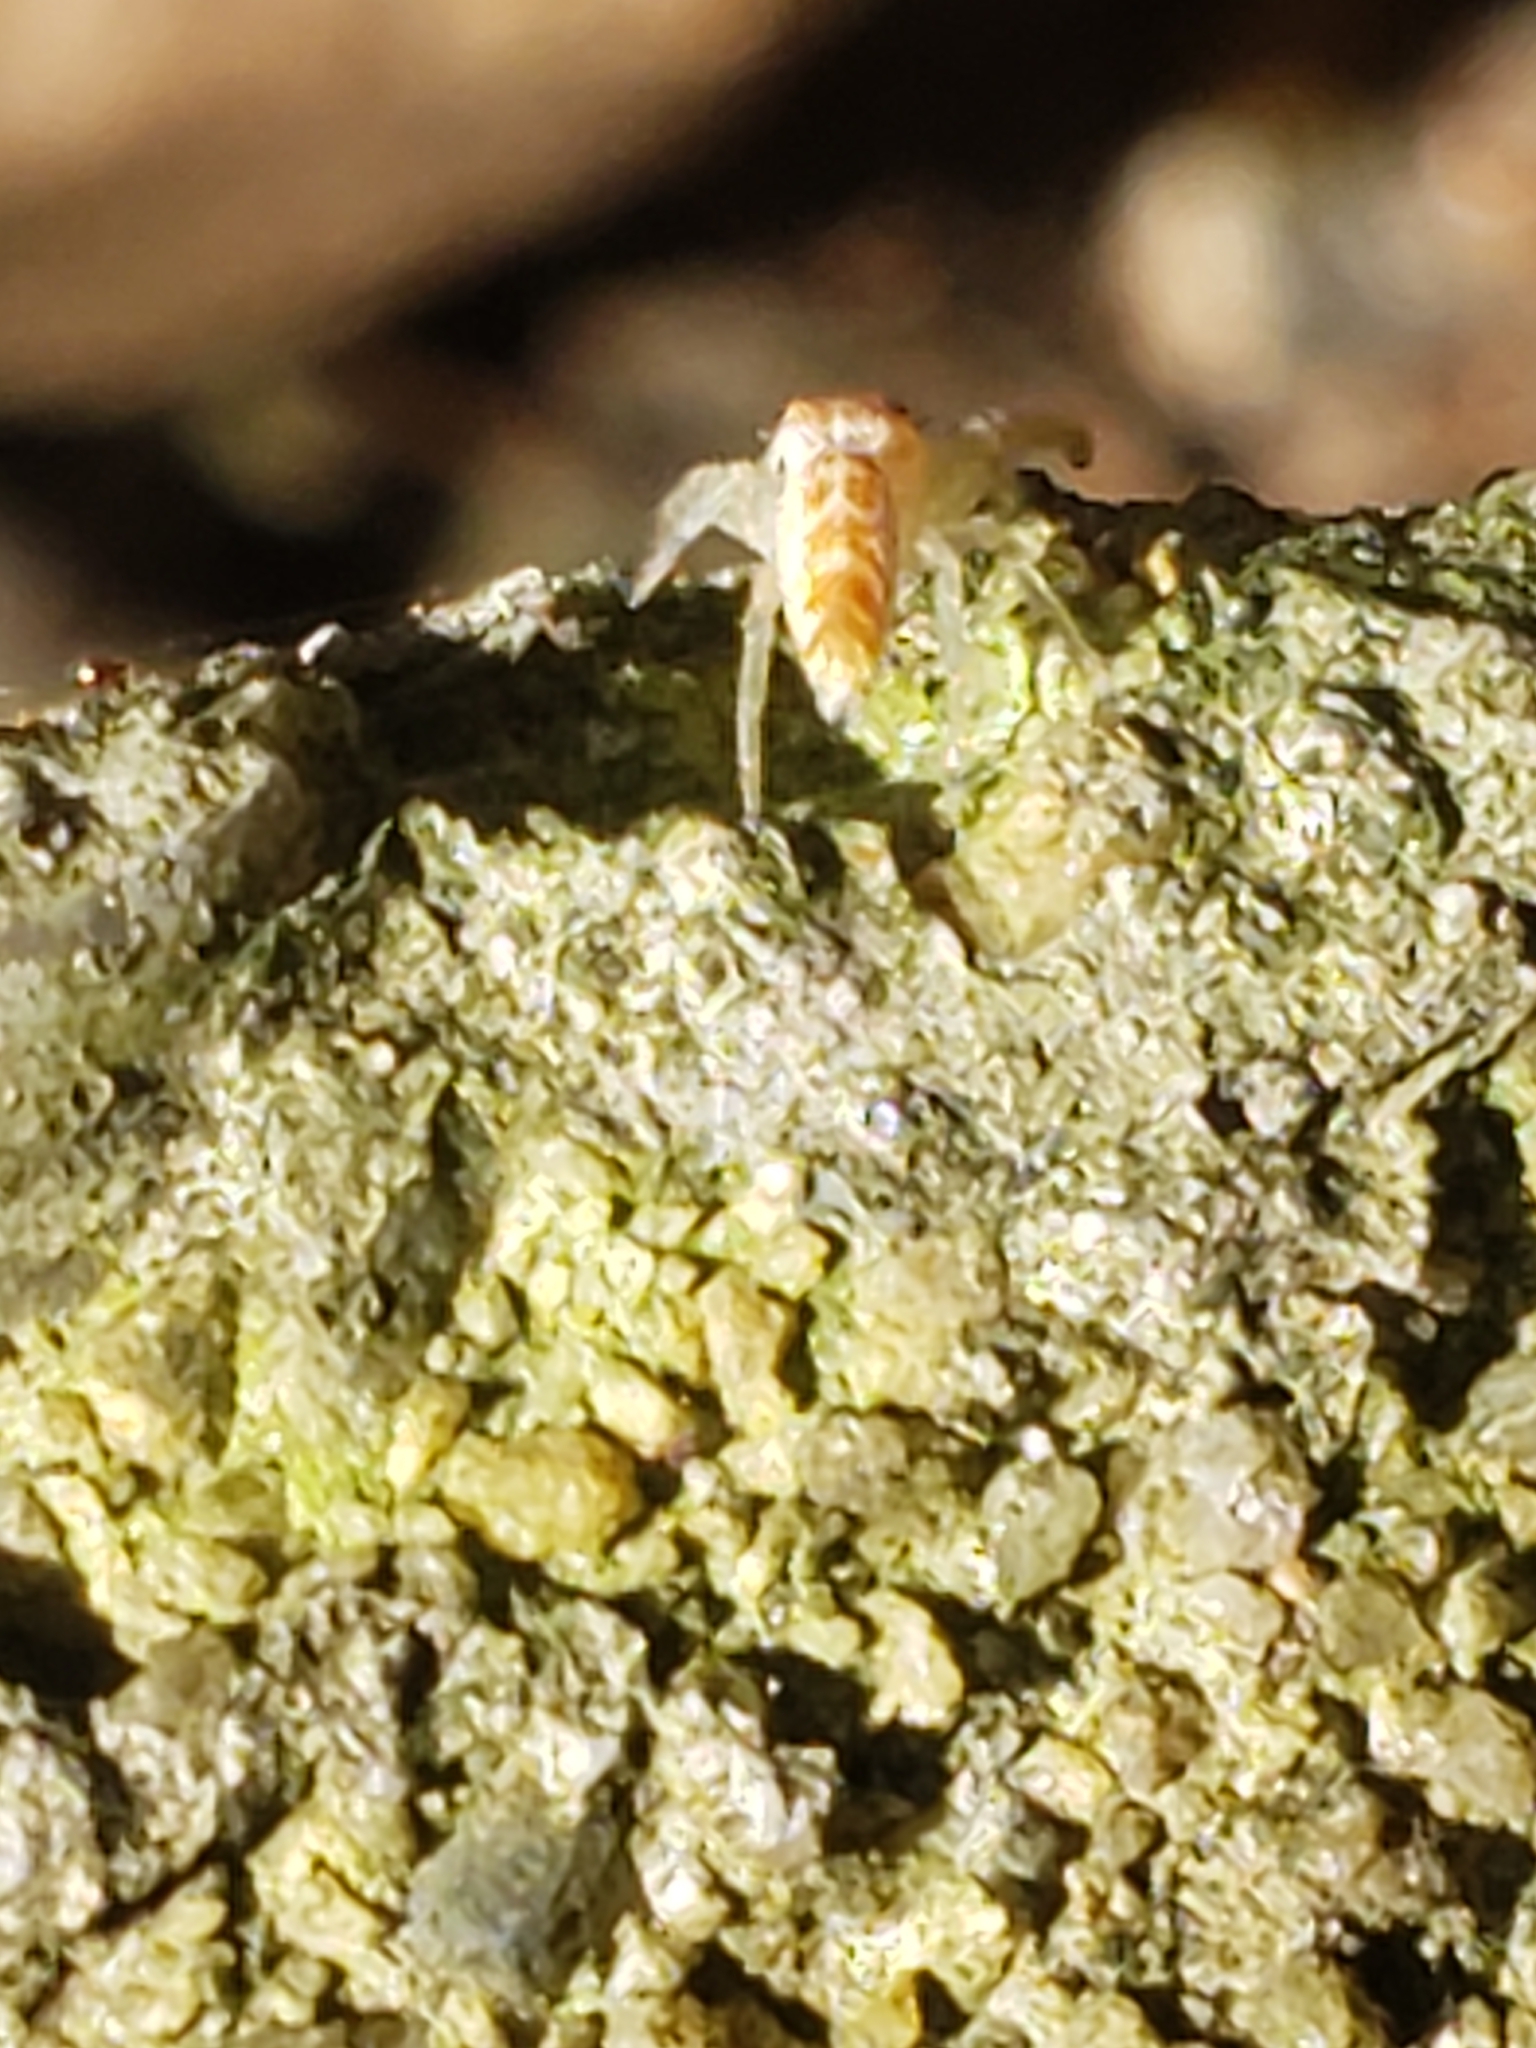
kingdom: Animalia
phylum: Arthropoda
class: Arachnida
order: Araneae
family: Salticidae
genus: Hentzia
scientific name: Hentzia mitrata
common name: White-jawed jumping spider
